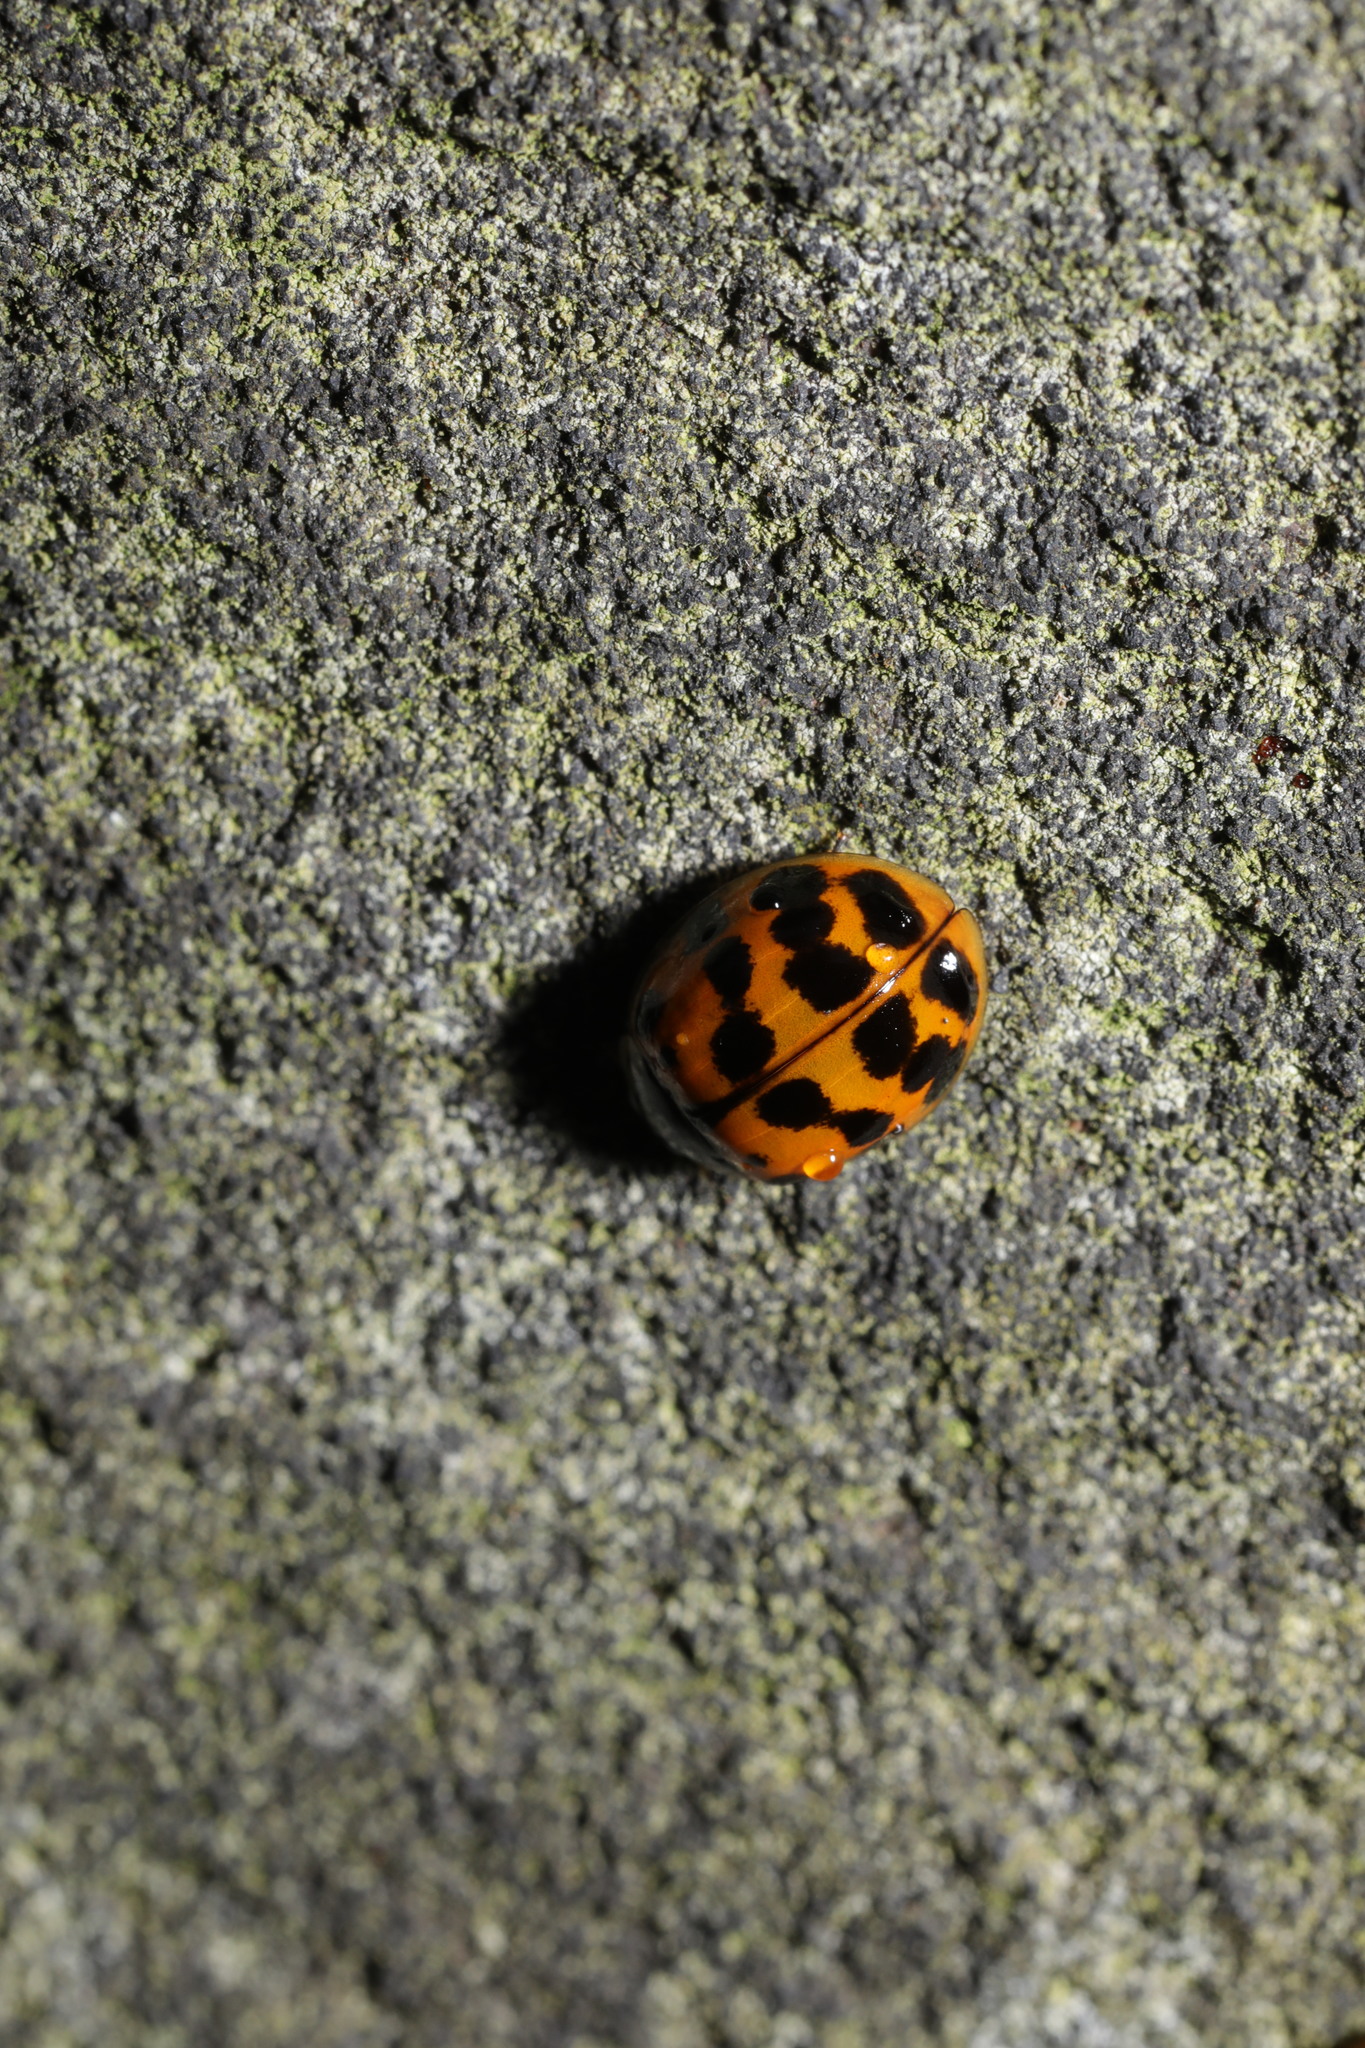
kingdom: Animalia
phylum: Arthropoda
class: Insecta
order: Coleoptera
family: Coccinellidae
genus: Harmonia
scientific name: Harmonia axyridis
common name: Harlequin ladybird
